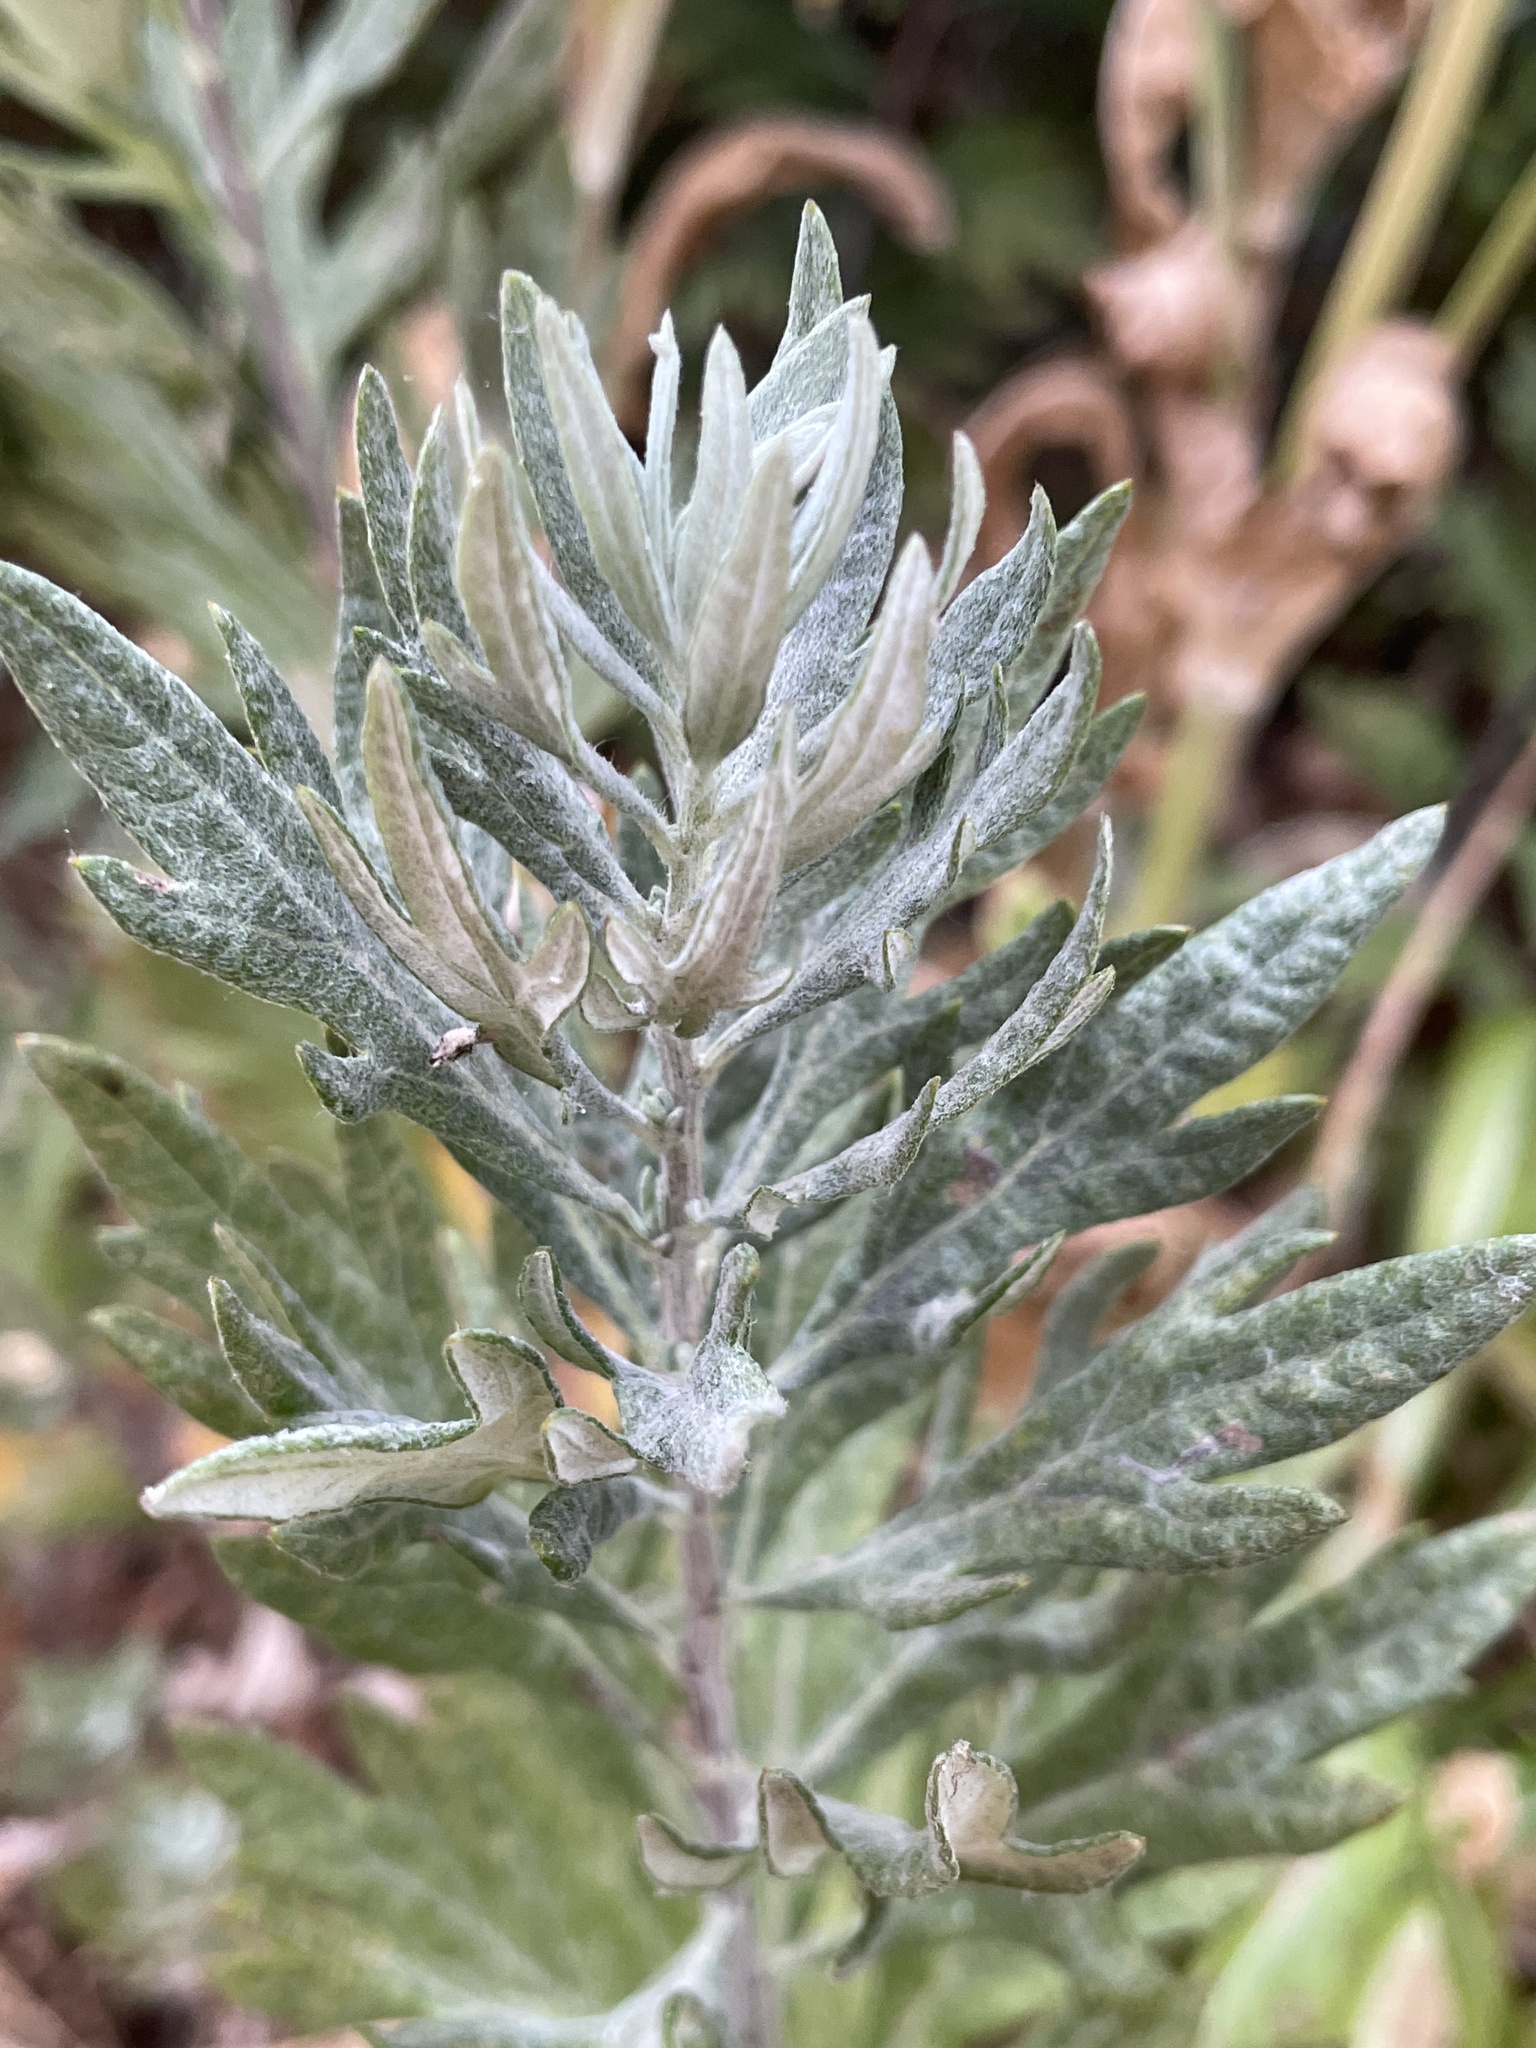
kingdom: Plantae
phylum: Tracheophyta
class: Magnoliopsida
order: Asterales
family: Asteraceae
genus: Artemisia
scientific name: Artemisia douglasiana
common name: Northwest mugwort
